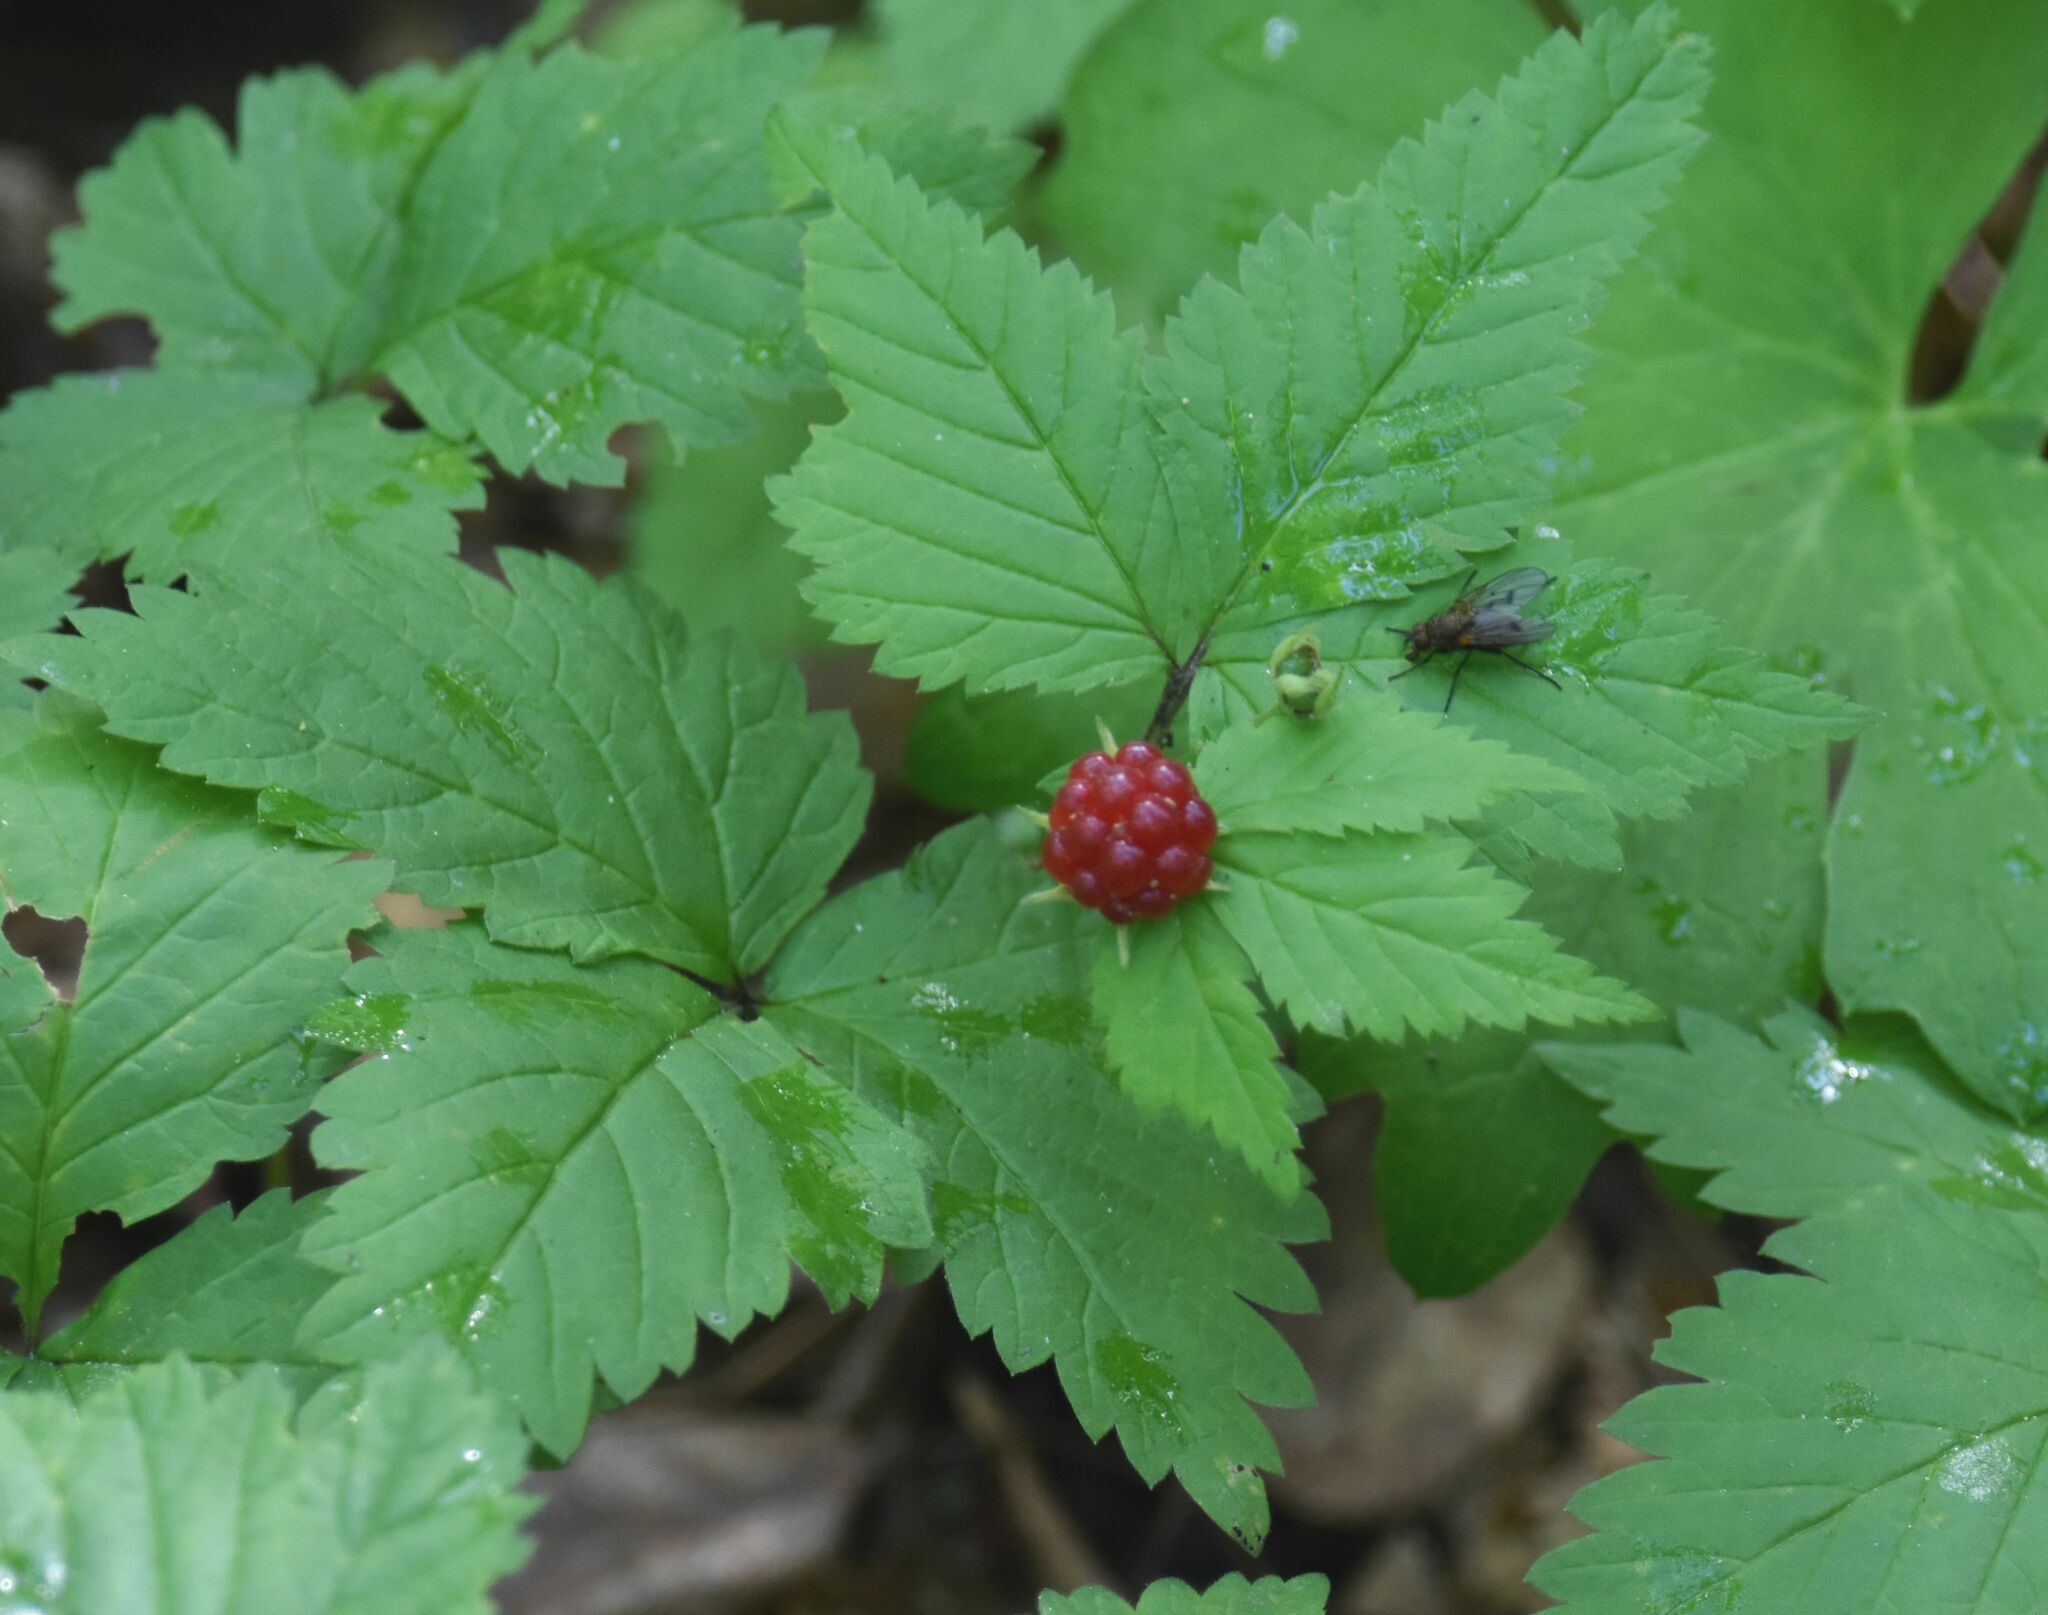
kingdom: Plantae
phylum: Tracheophyta
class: Magnoliopsida
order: Rosales
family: Rosaceae
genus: Rubus
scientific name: Rubus pubescens
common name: Dwarf raspberry
